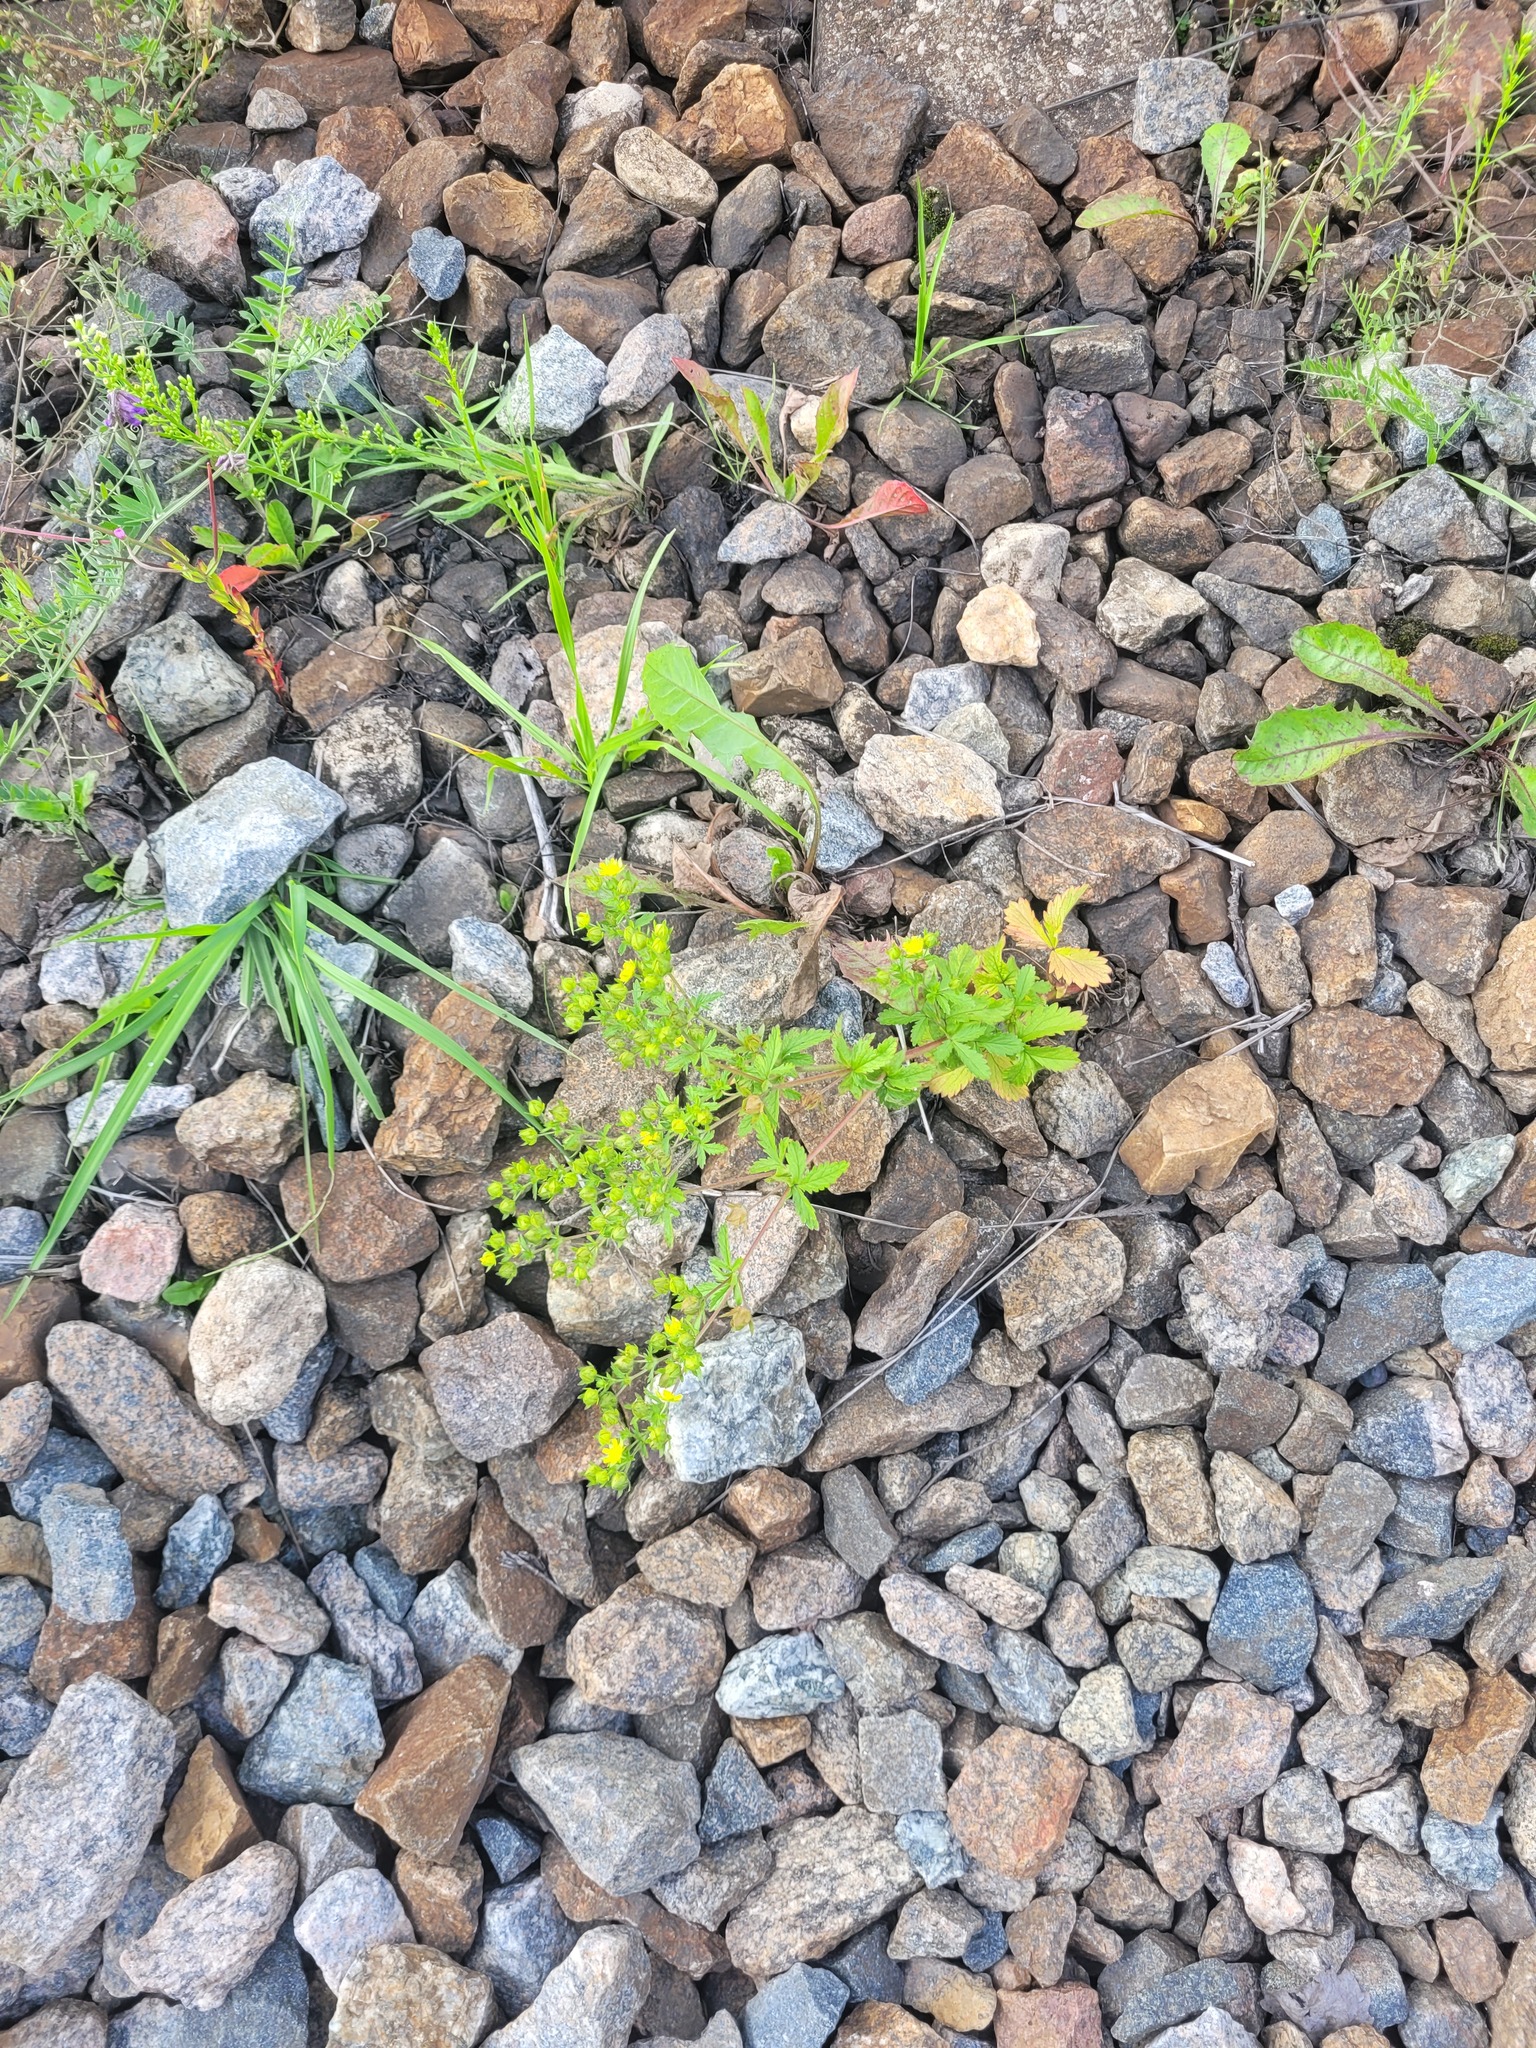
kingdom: Plantae
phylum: Tracheophyta
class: Magnoliopsida
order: Rosales
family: Rosaceae
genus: Potentilla
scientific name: Potentilla norvegica
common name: Ternate-leaved cinquefoil
